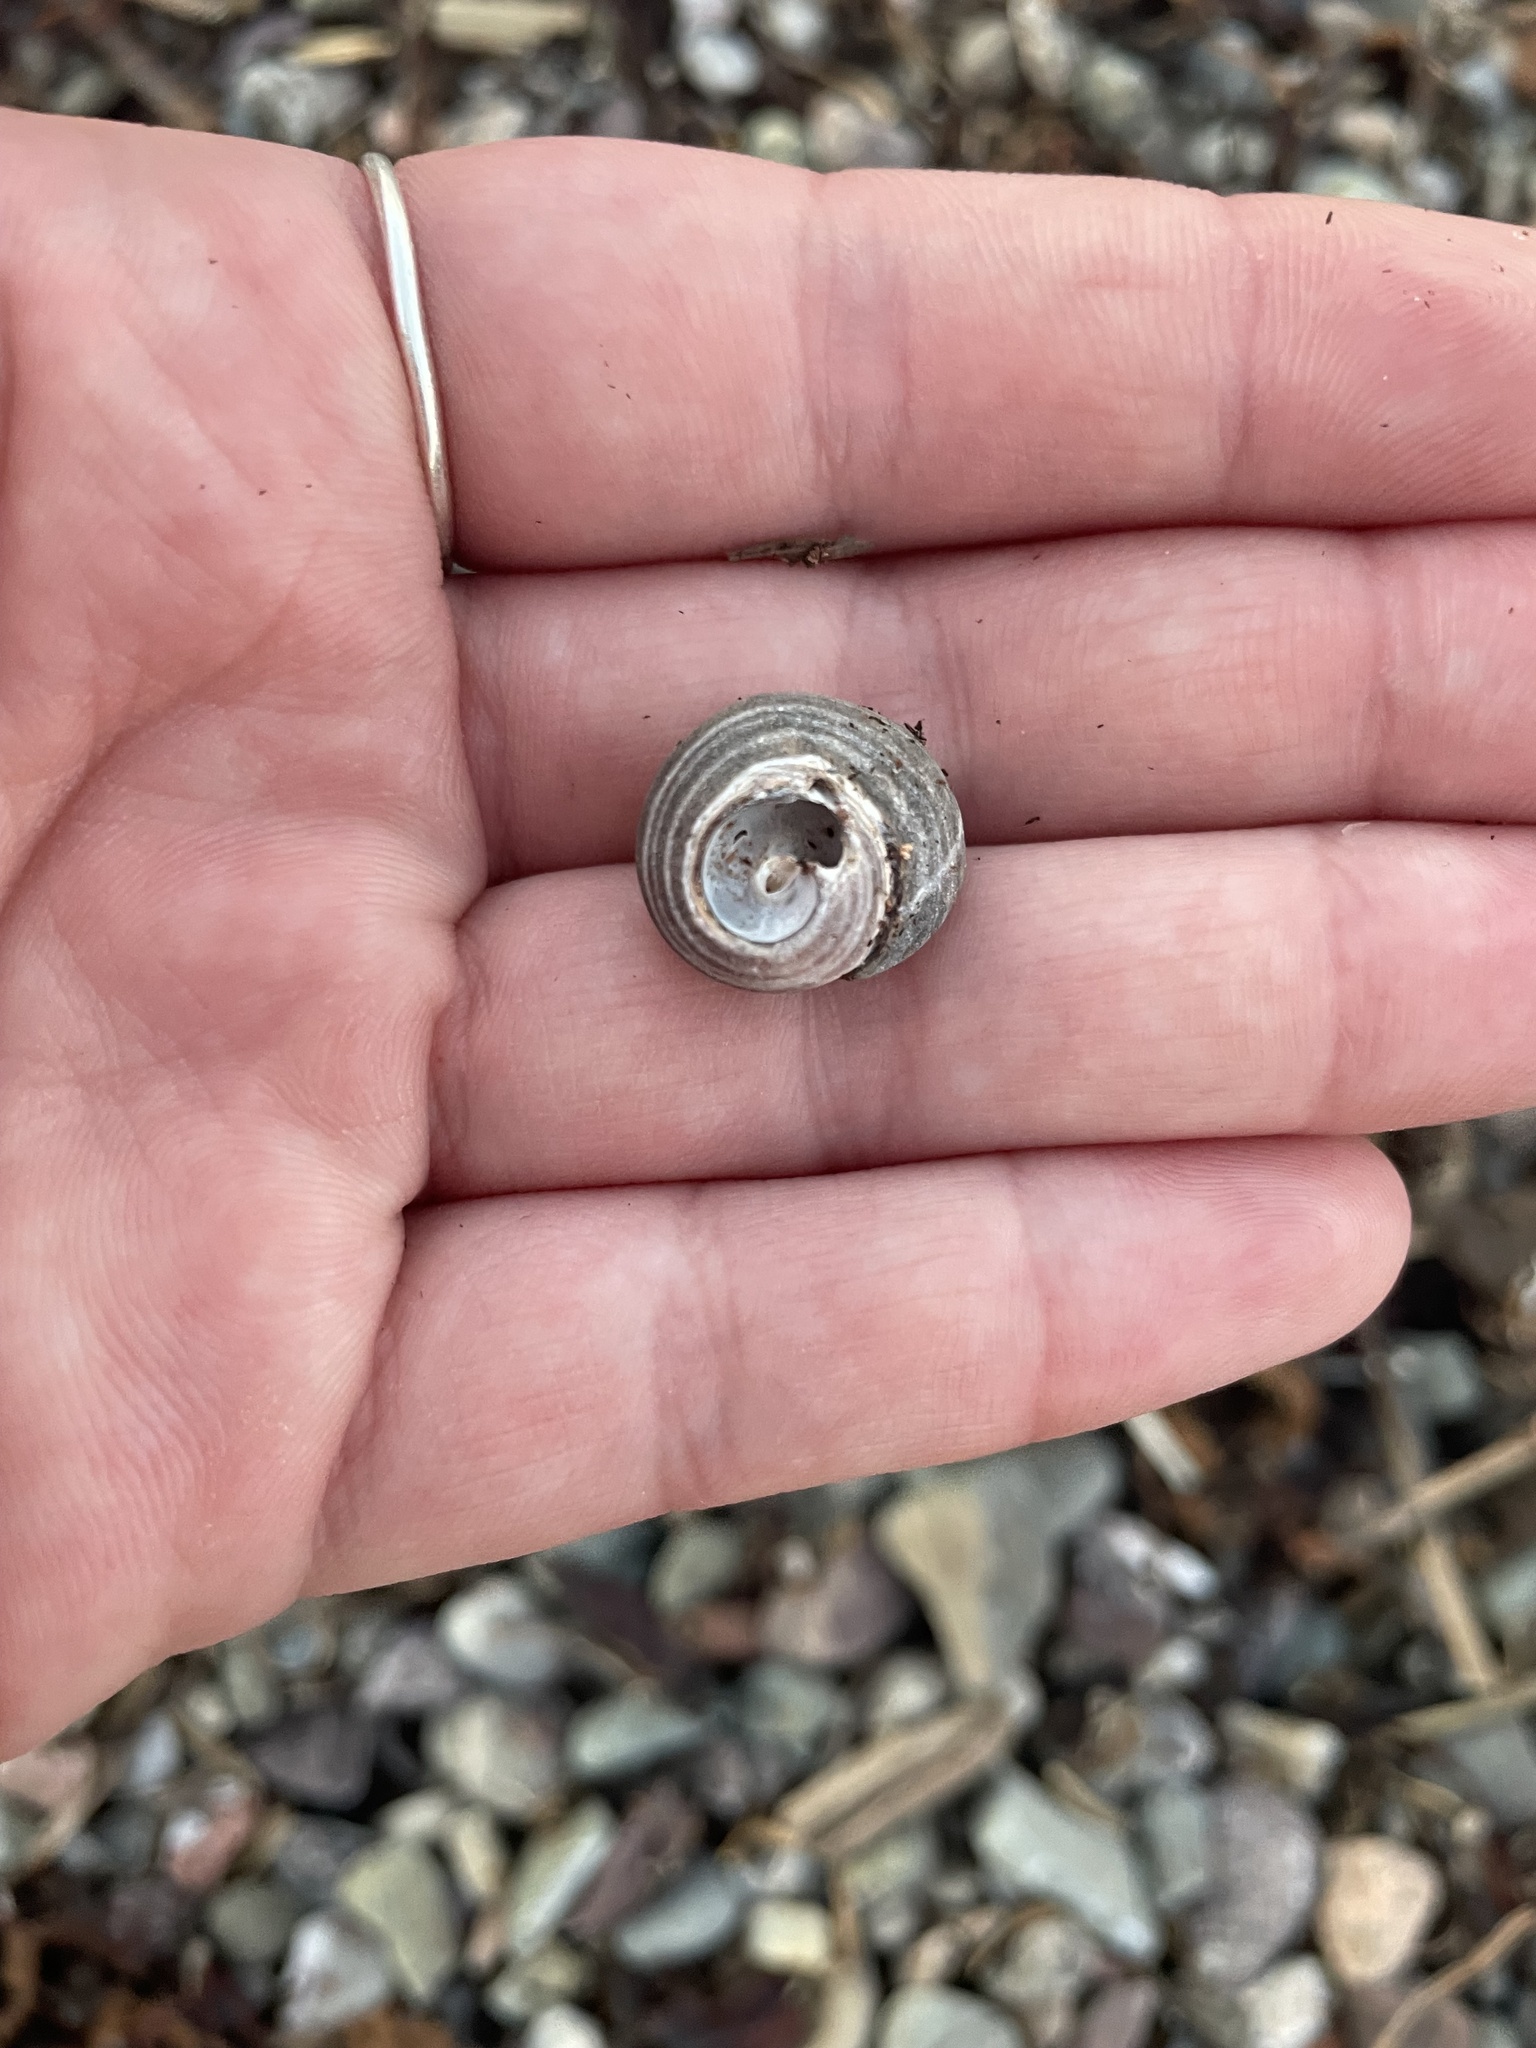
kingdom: Animalia
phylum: Mollusca
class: Gastropoda
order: Littorinimorpha
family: Littorinidae
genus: Littorina
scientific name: Littorina littorea
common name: Common periwinkle
